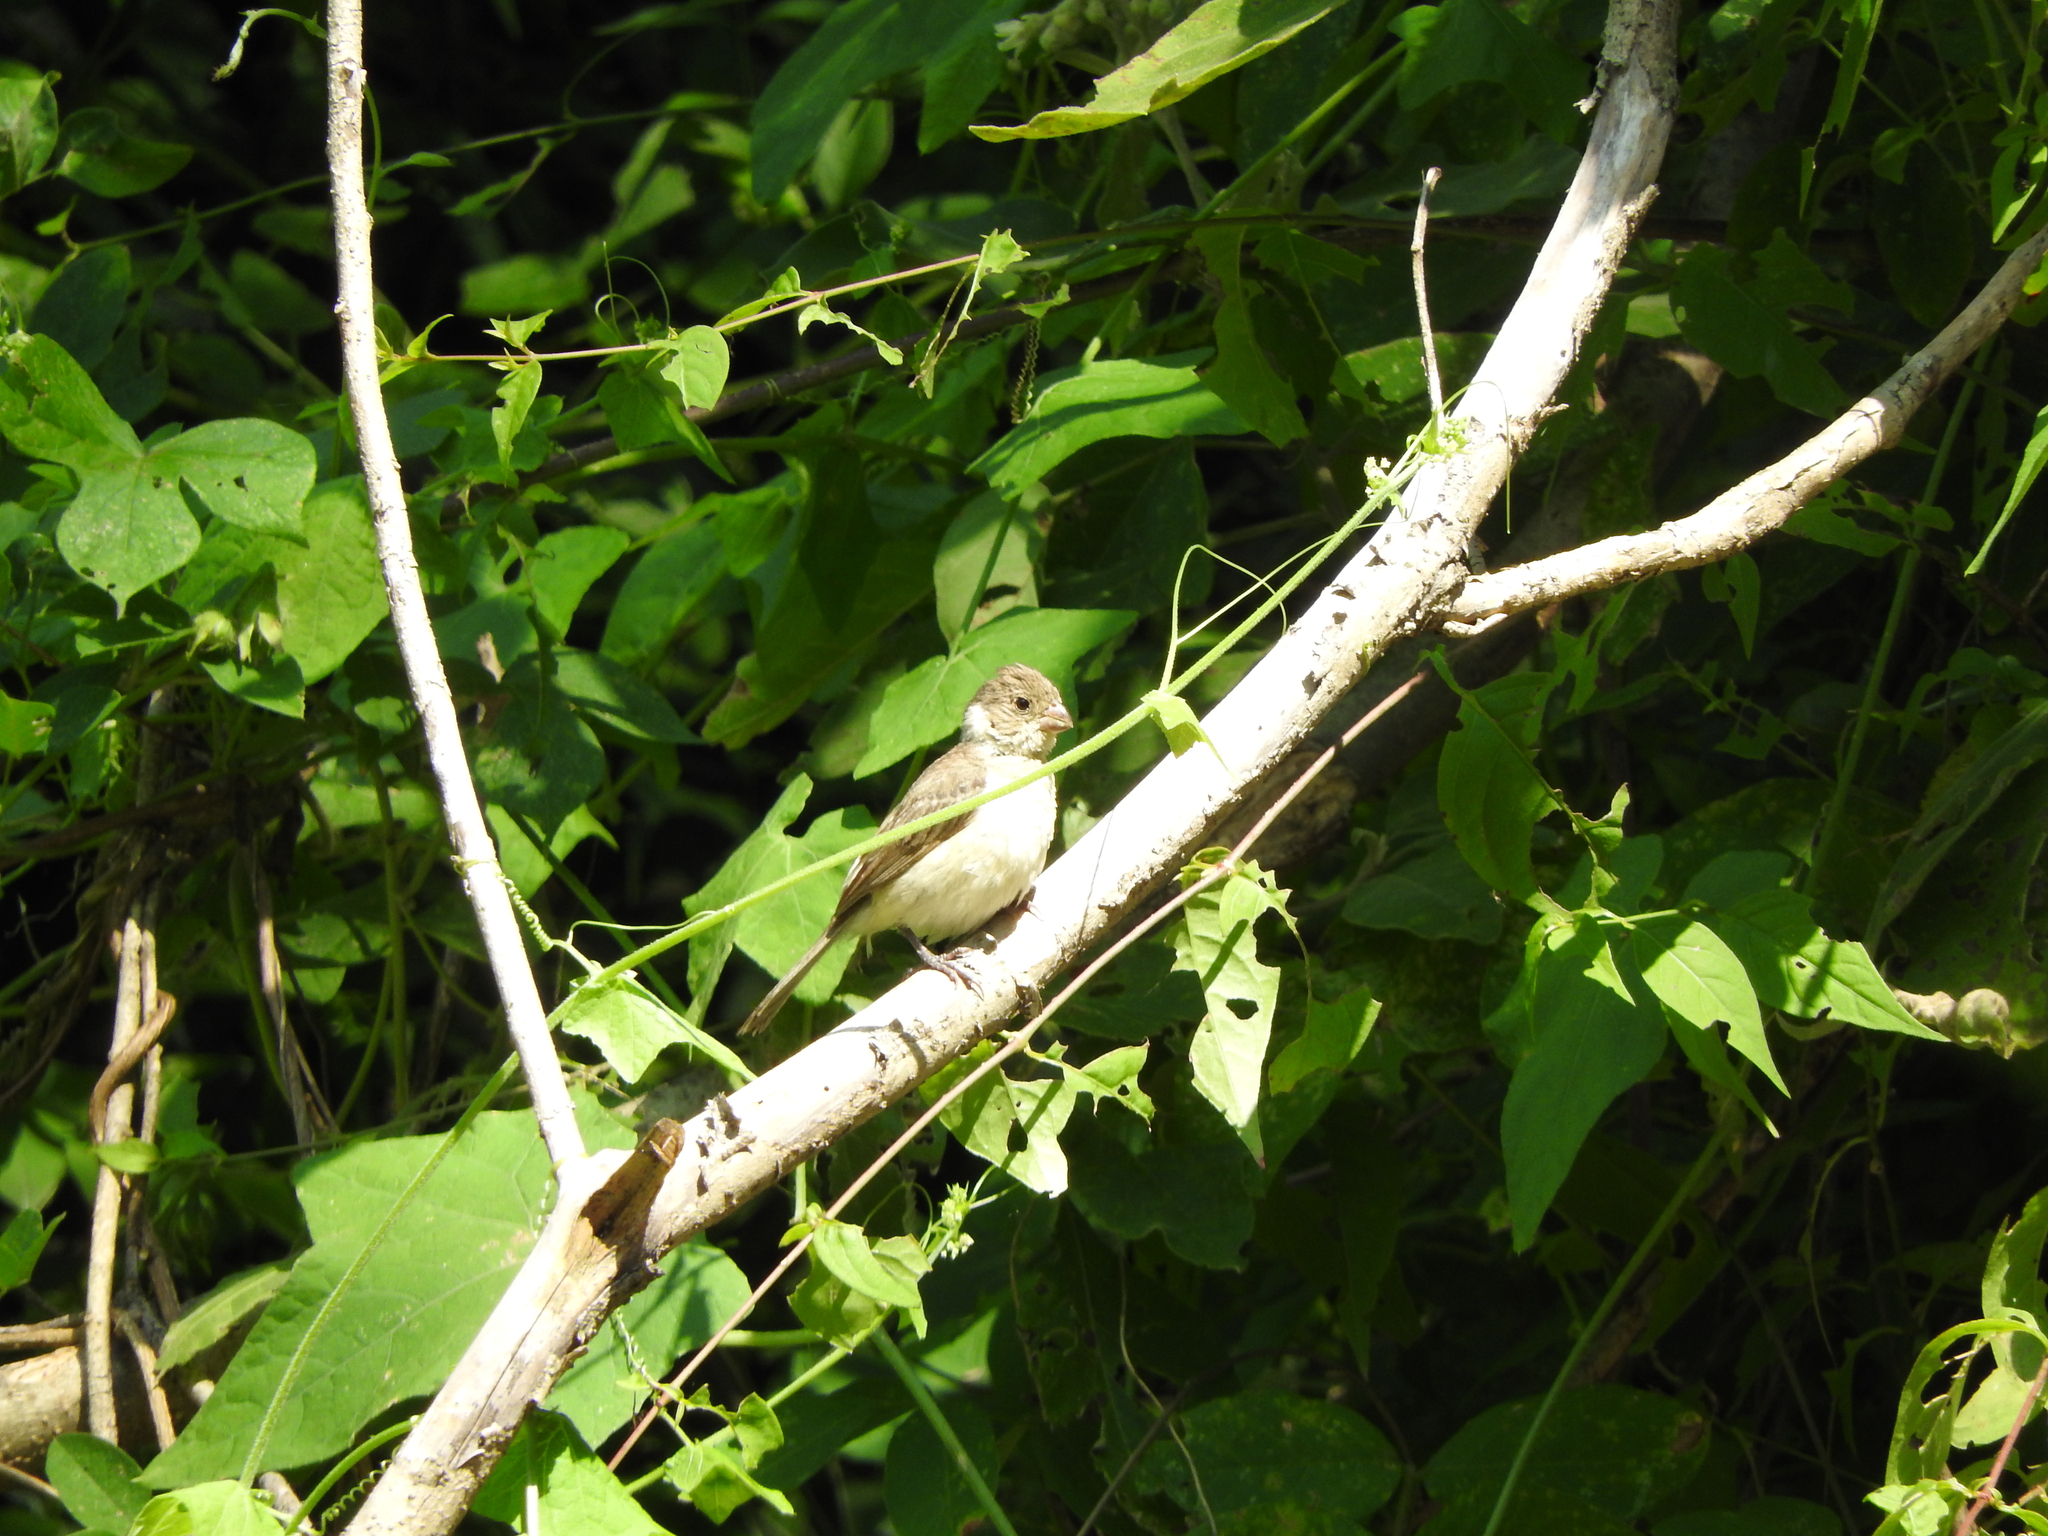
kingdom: Animalia
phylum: Chordata
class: Aves
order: Passeriformes
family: Thraupidae
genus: Sporophila
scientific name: Sporophila torqueola
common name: White-collared seedeater
